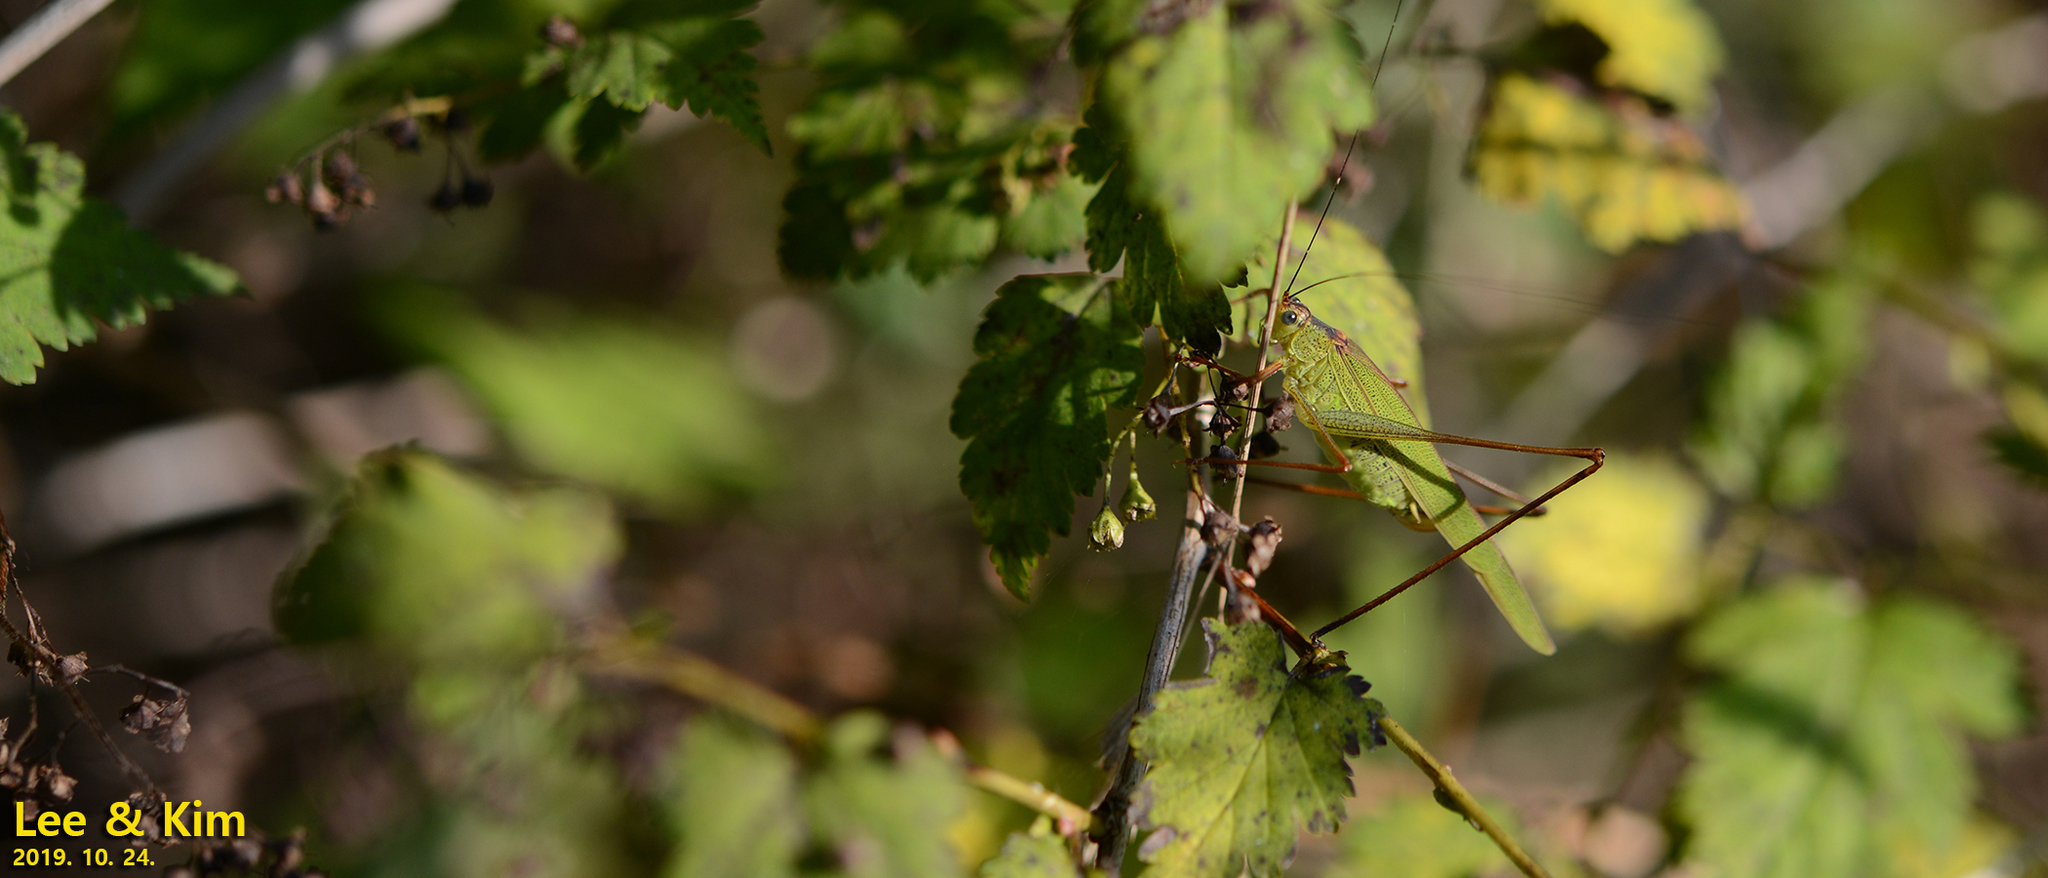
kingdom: Animalia
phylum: Arthropoda
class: Insecta
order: Orthoptera
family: Tettigoniidae
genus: Phaneroptera
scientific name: Phaneroptera nigroantennata
